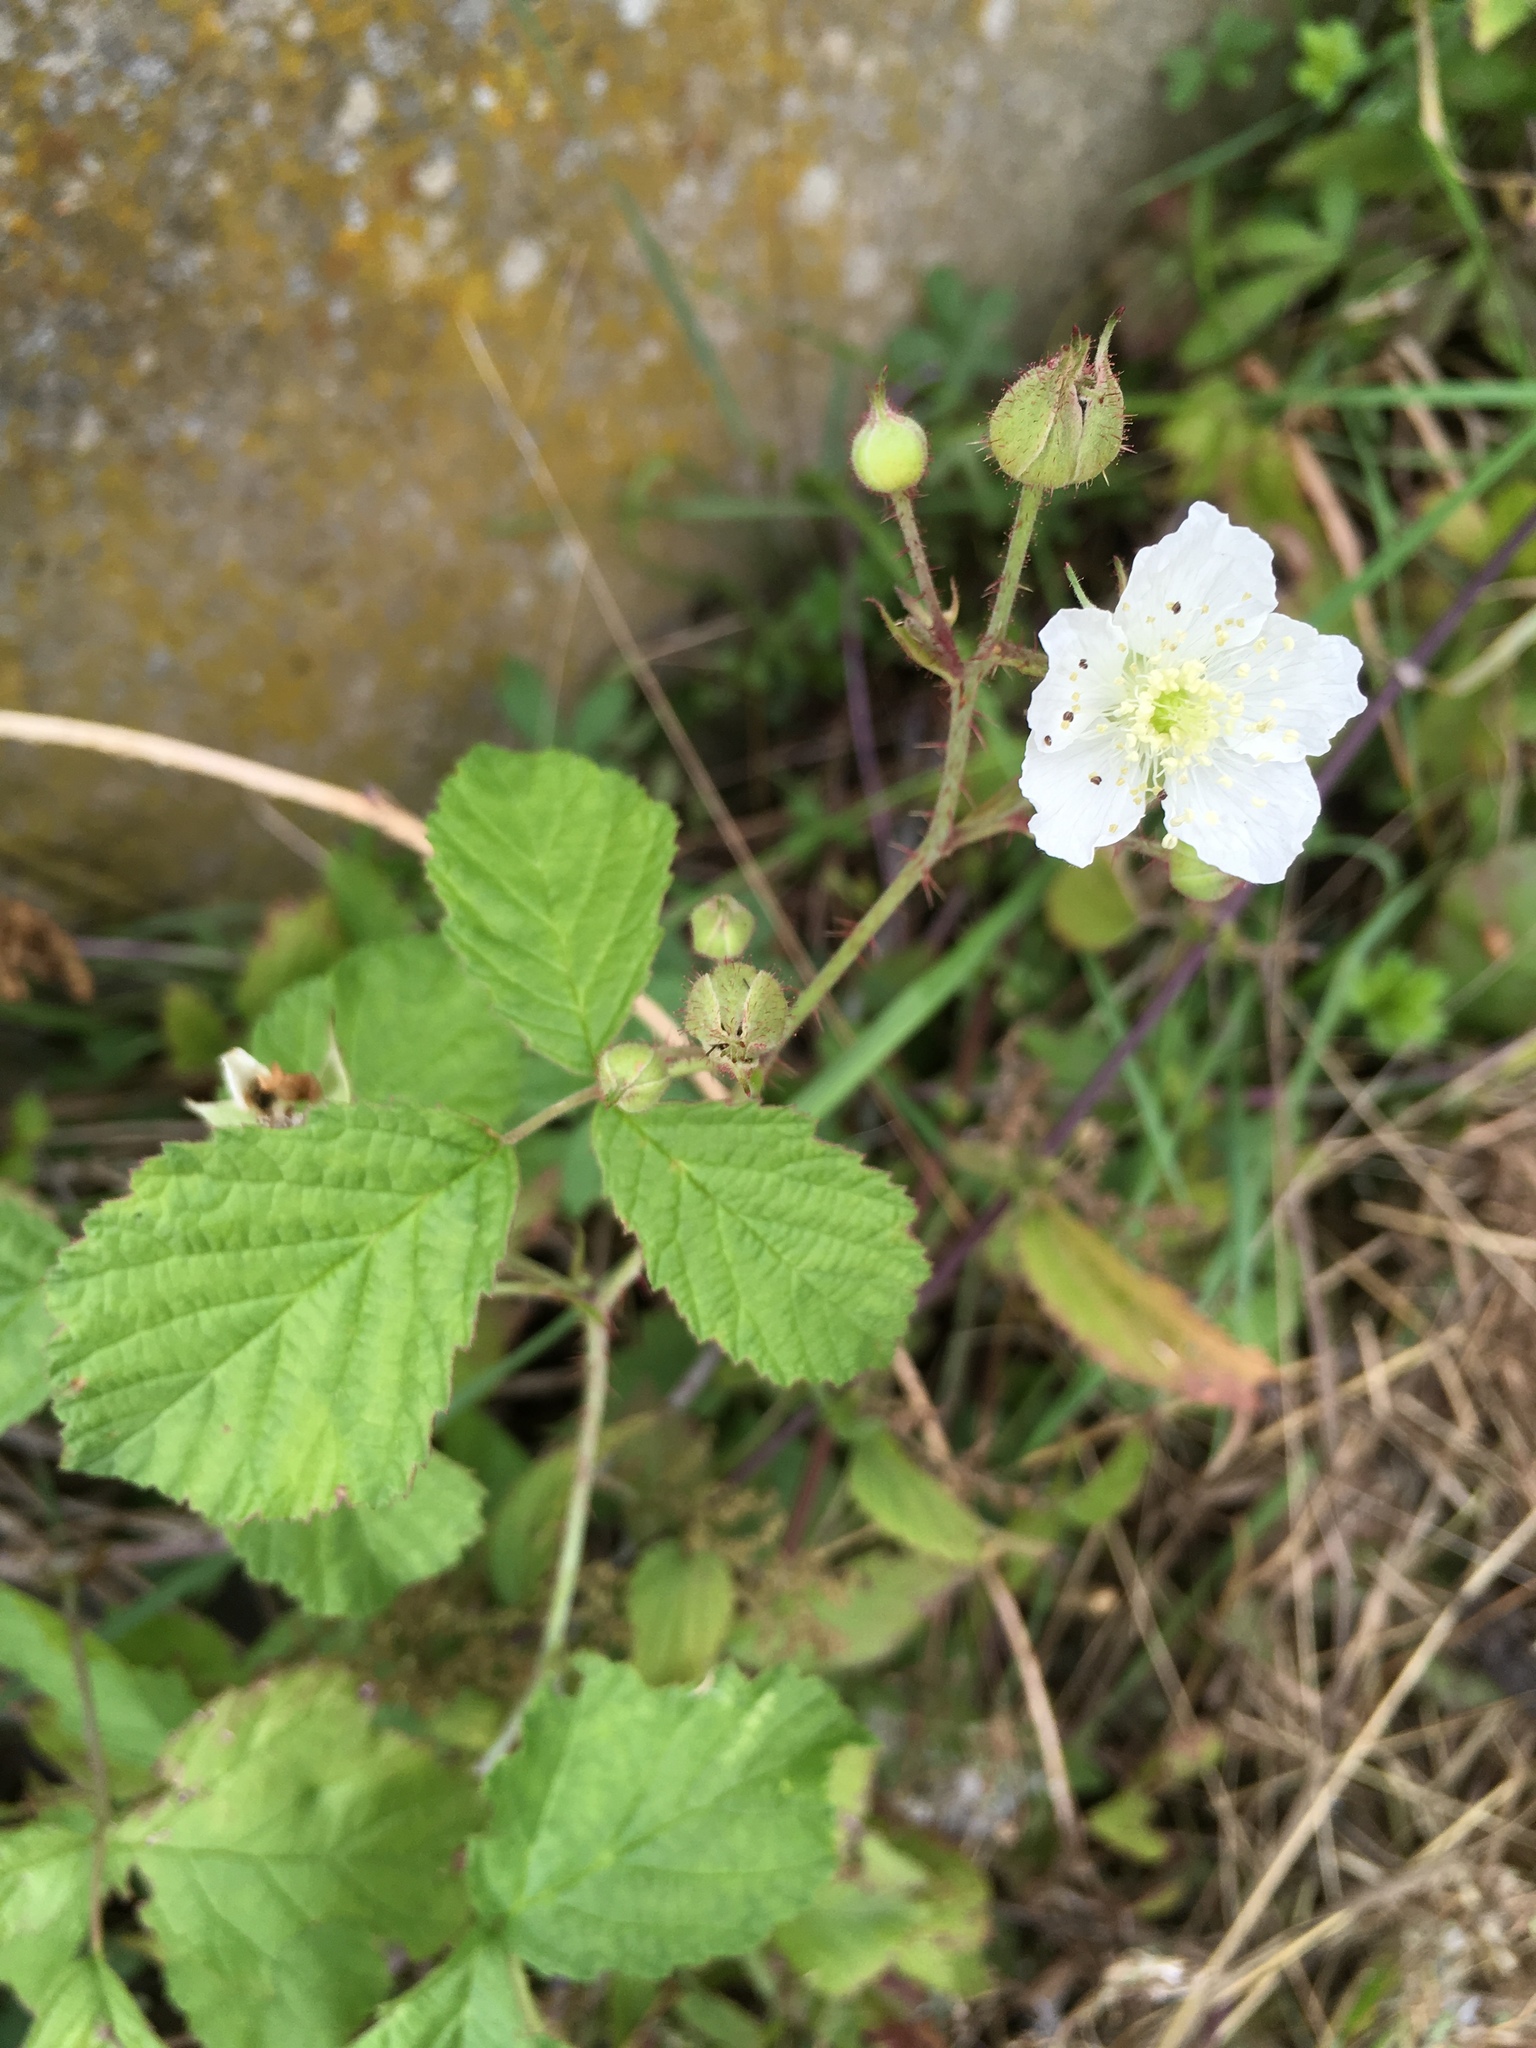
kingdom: Plantae
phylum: Tracheophyta
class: Magnoliopsida
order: Rosales
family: Rosaceae
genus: Rubus
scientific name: Rubus caesius
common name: Dewberry
